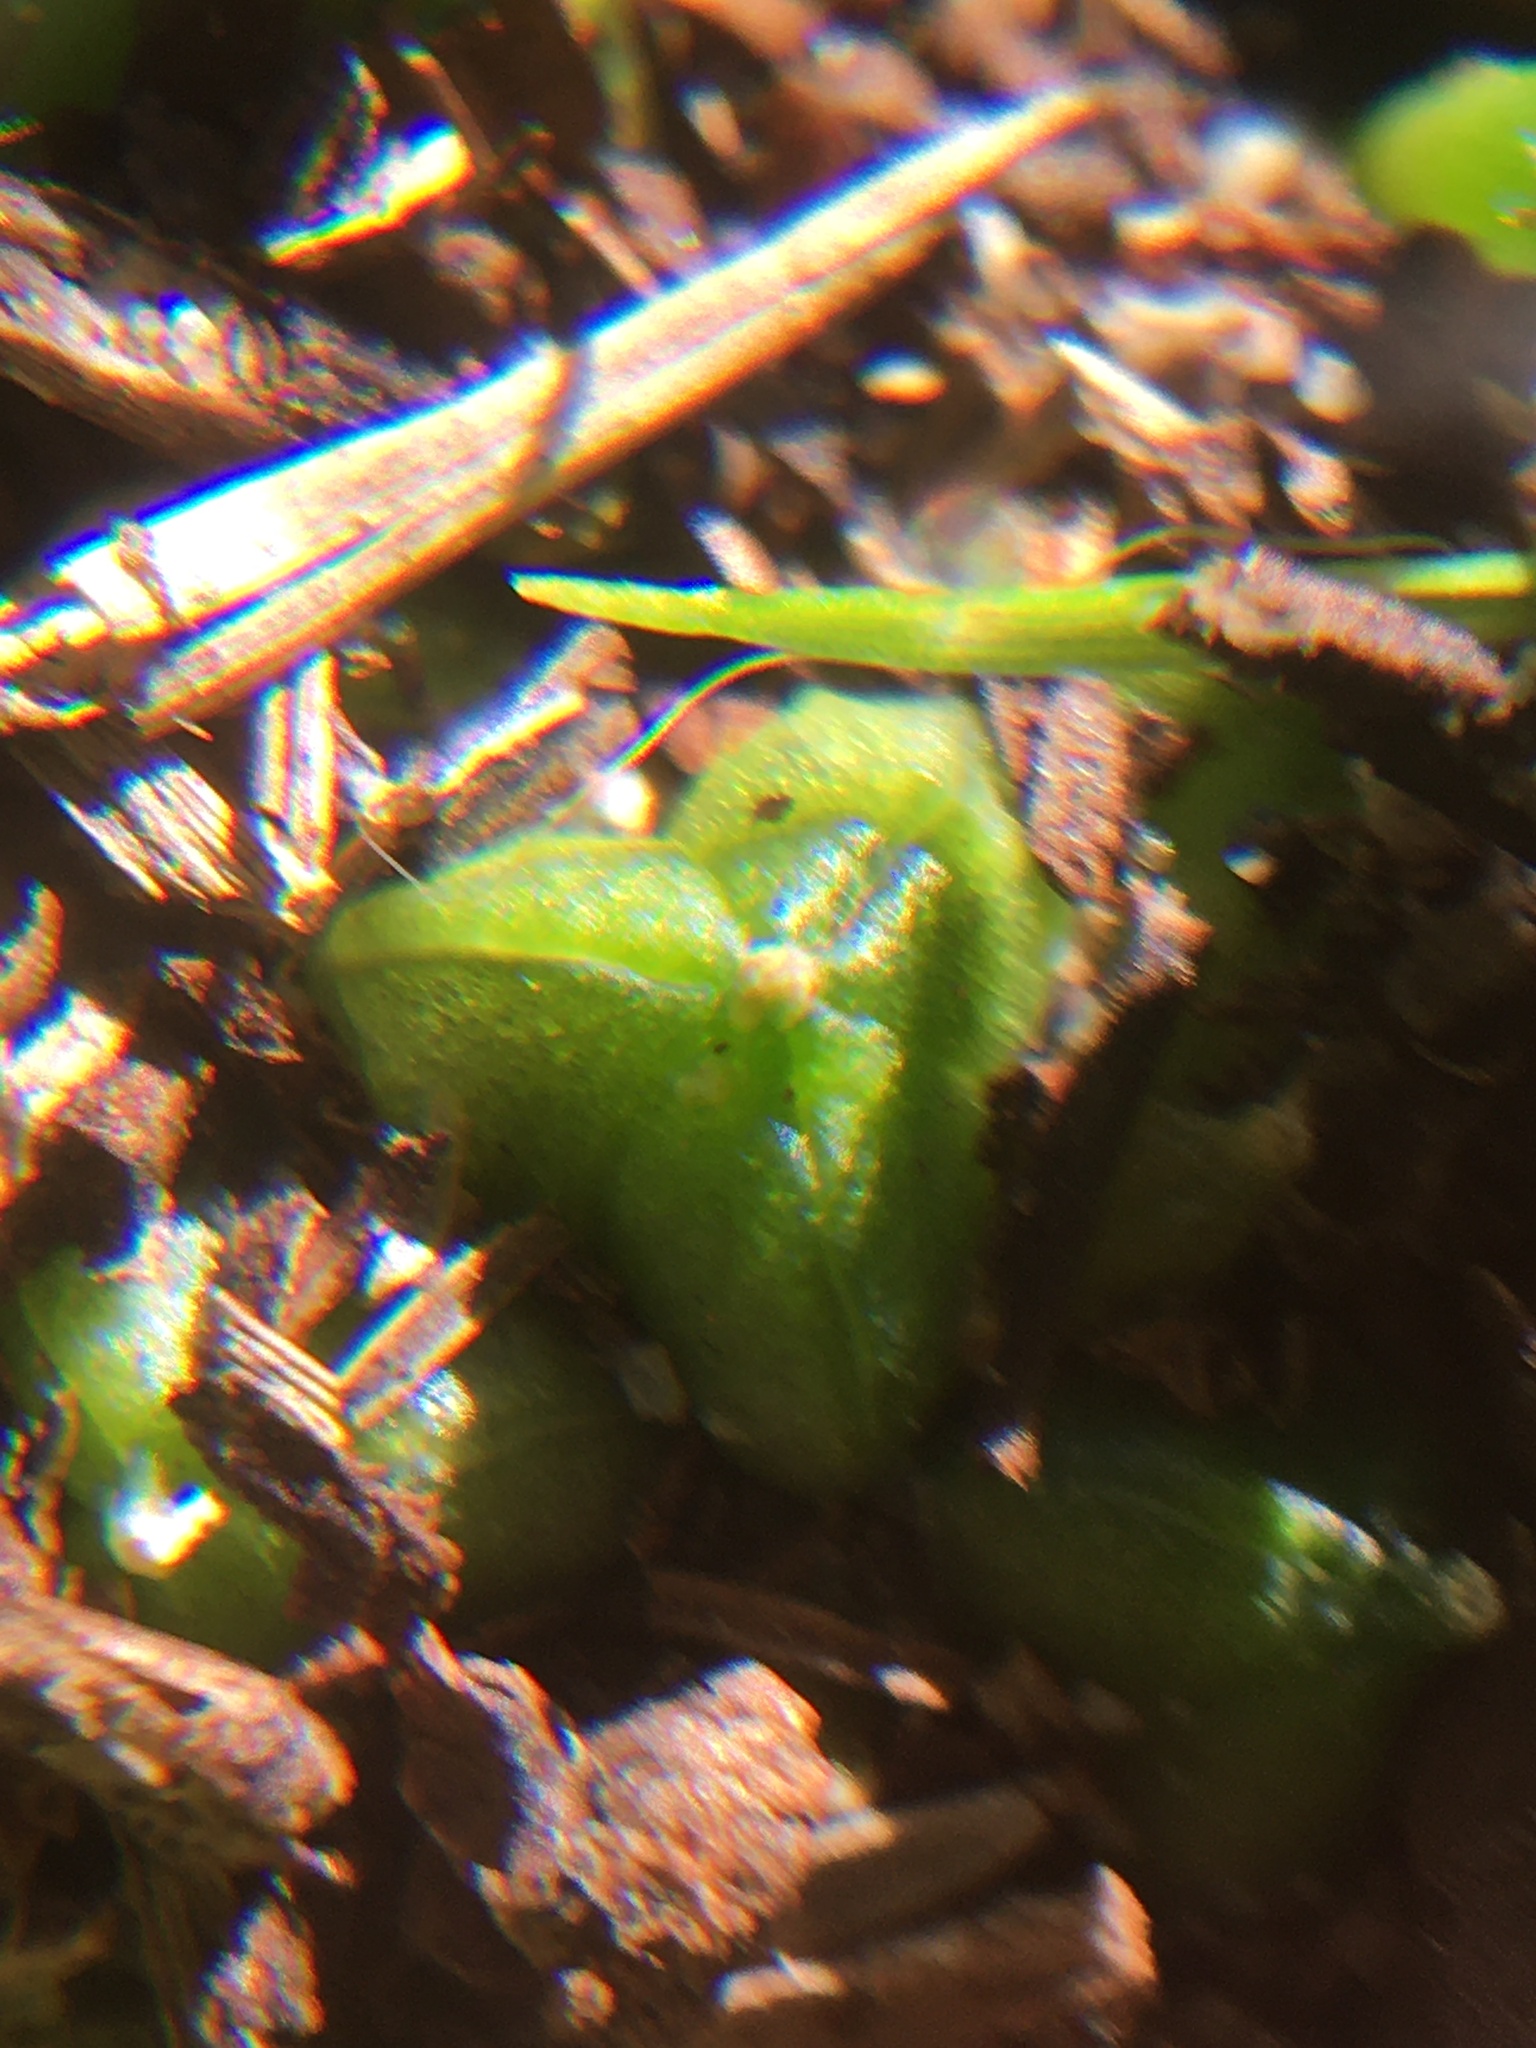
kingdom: Plantae
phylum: Tracheophyta
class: Liliopsida
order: Asparagales
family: Asparagaceae
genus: Lachenalia
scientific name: Lachenalia ensifolia
